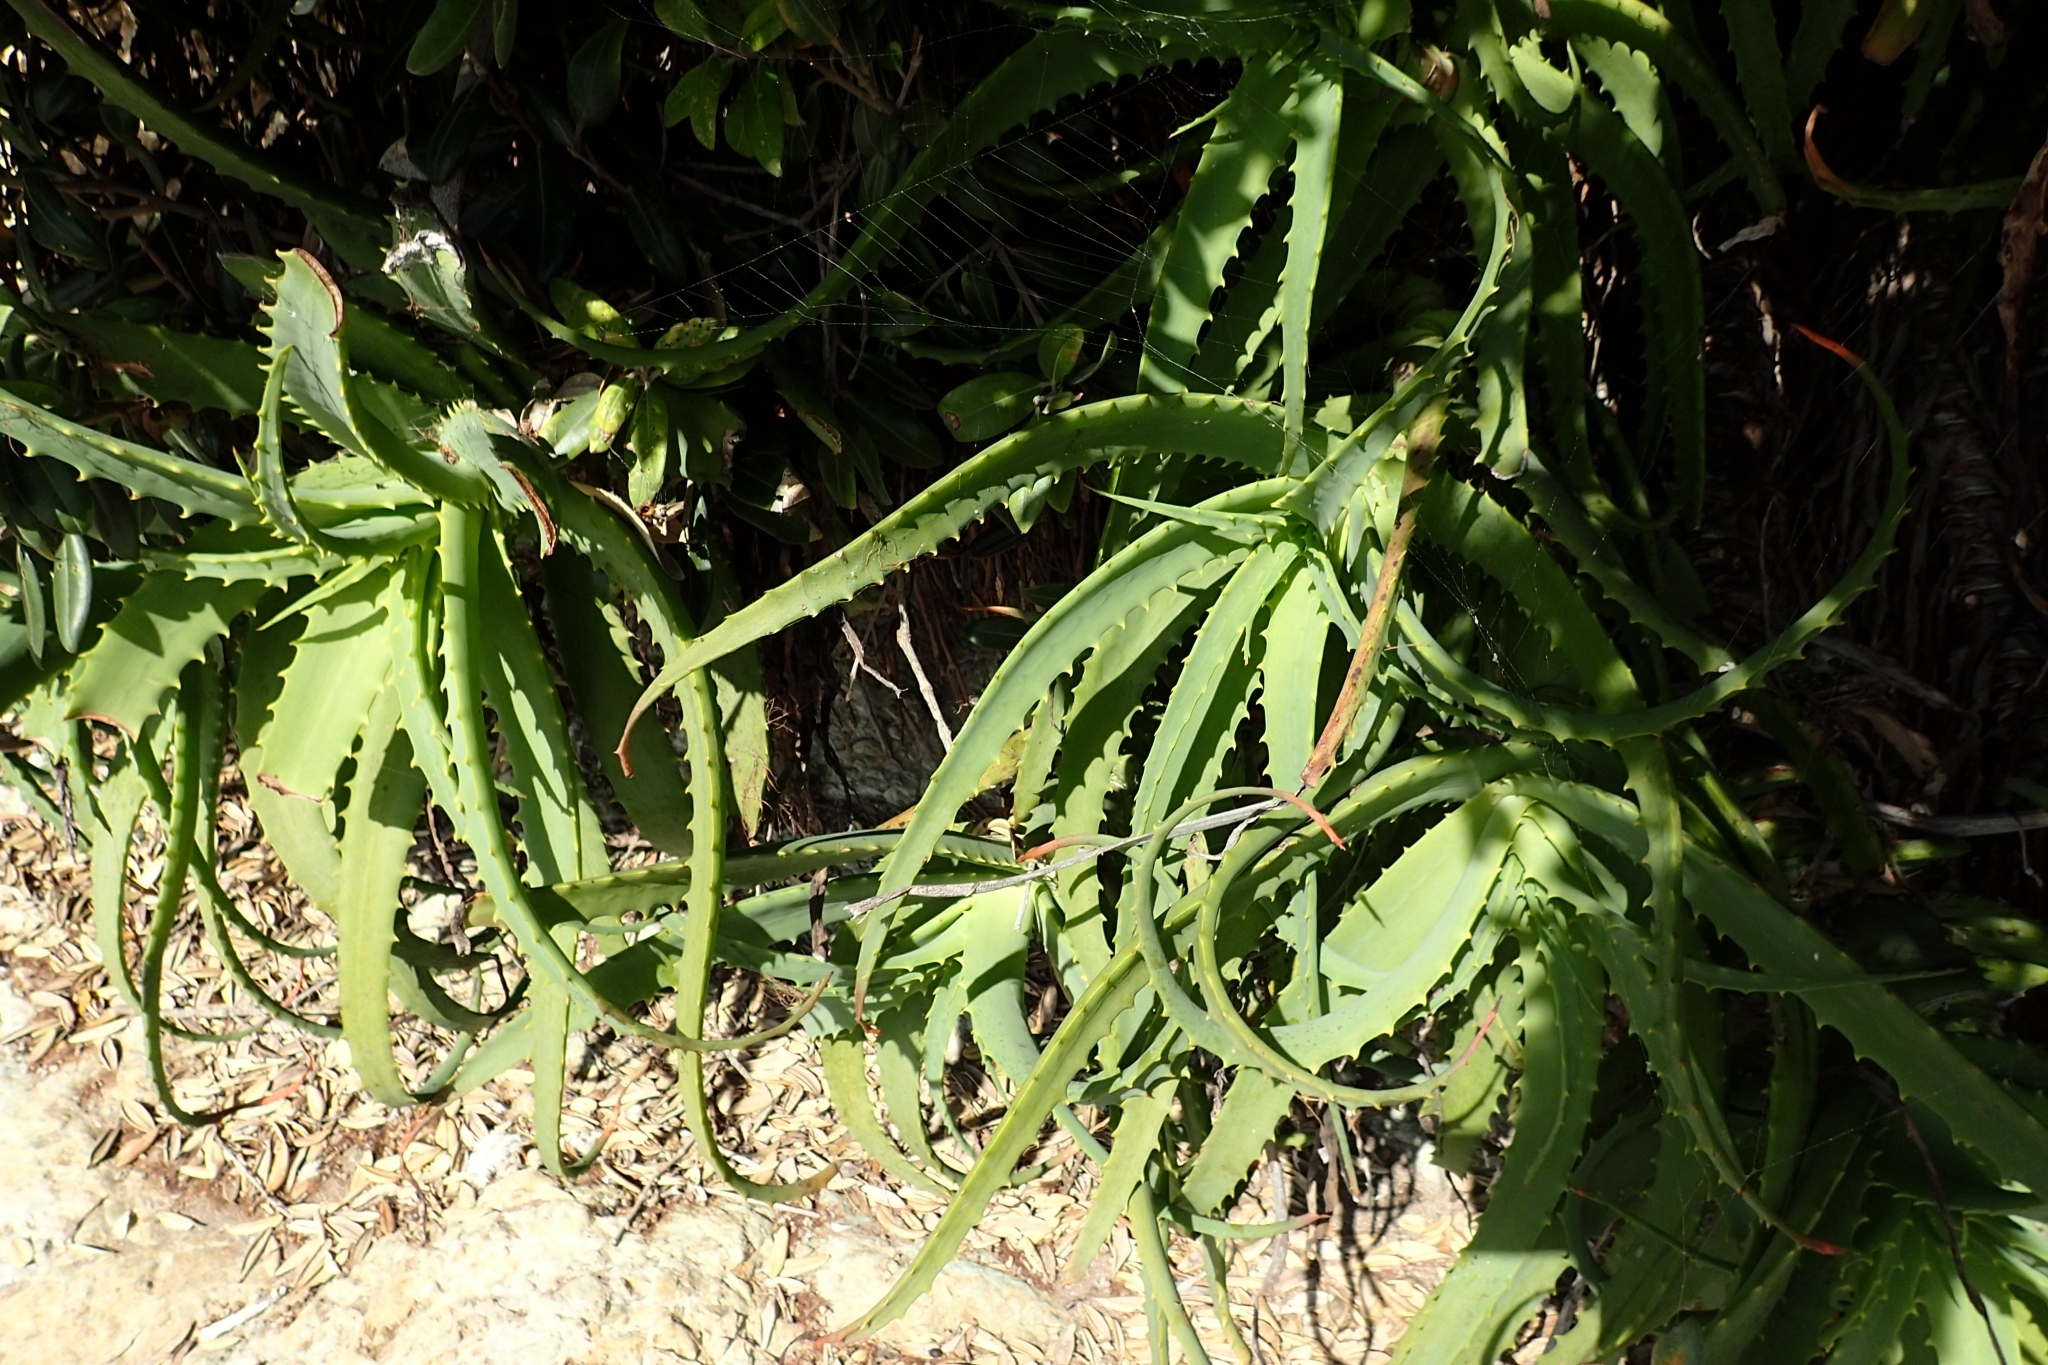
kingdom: Plantae
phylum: Tracheophyta
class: Liliopsida
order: Asparagales
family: Asphodelaceae
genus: Aloe
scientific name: Aloe arborescens
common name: Candelabra aloe
